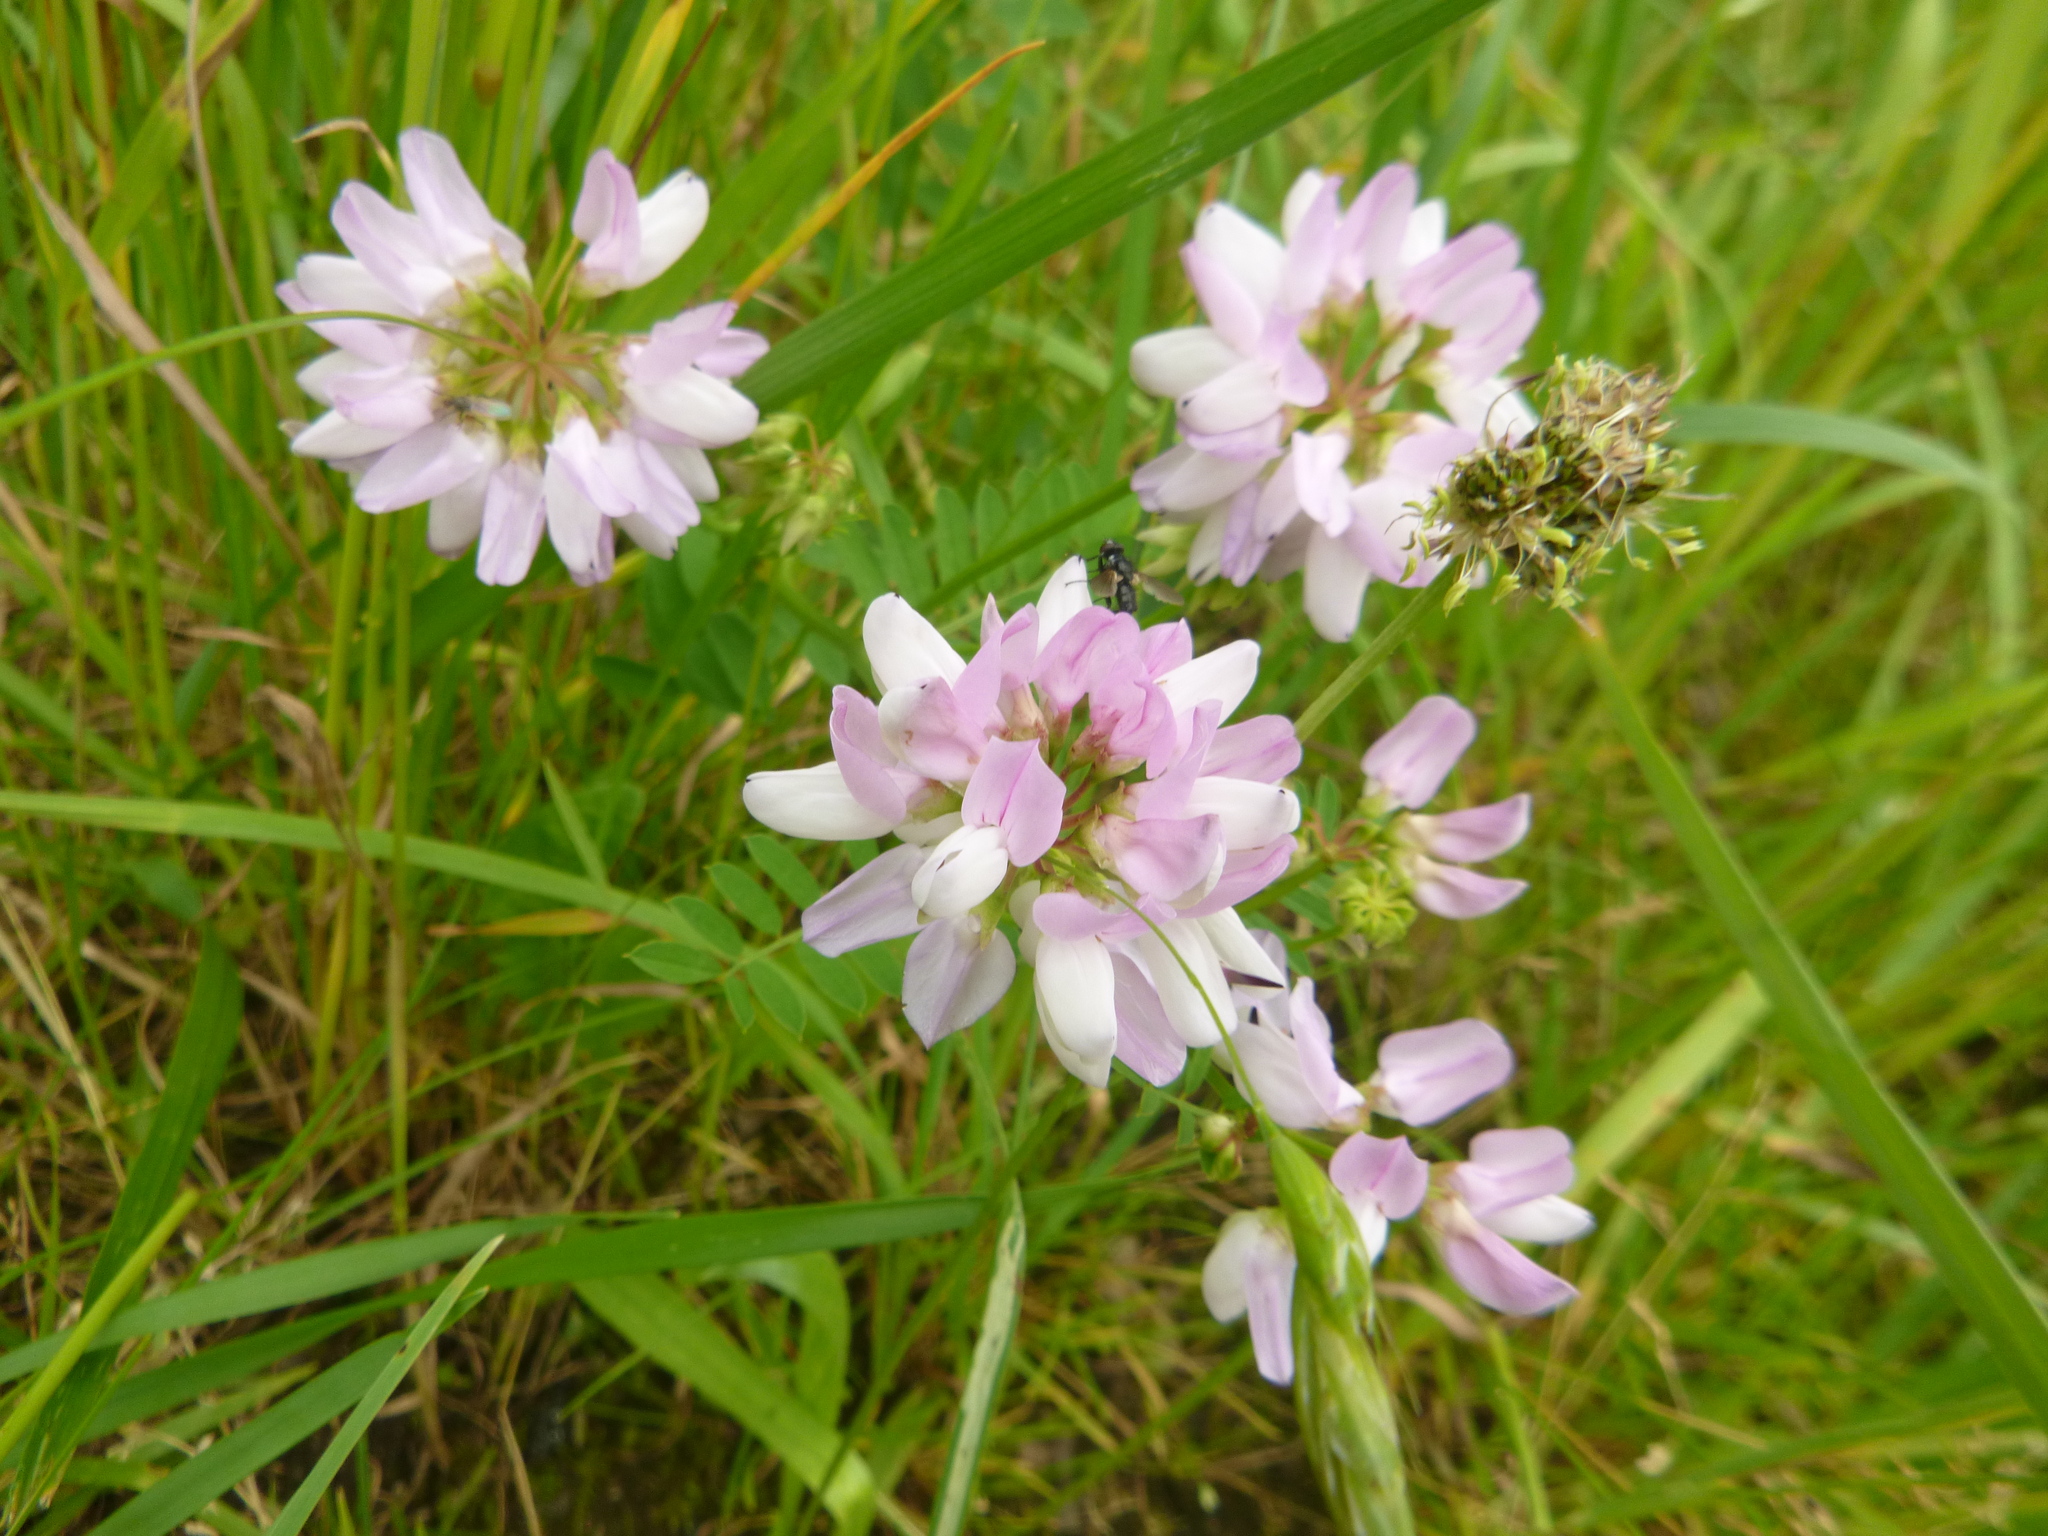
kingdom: Plantae
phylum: Tracheophyta
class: Magnoliopsida
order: Fabales
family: Fabaceae
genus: Coronilla
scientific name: Coronilla varia
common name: Crownvetch
